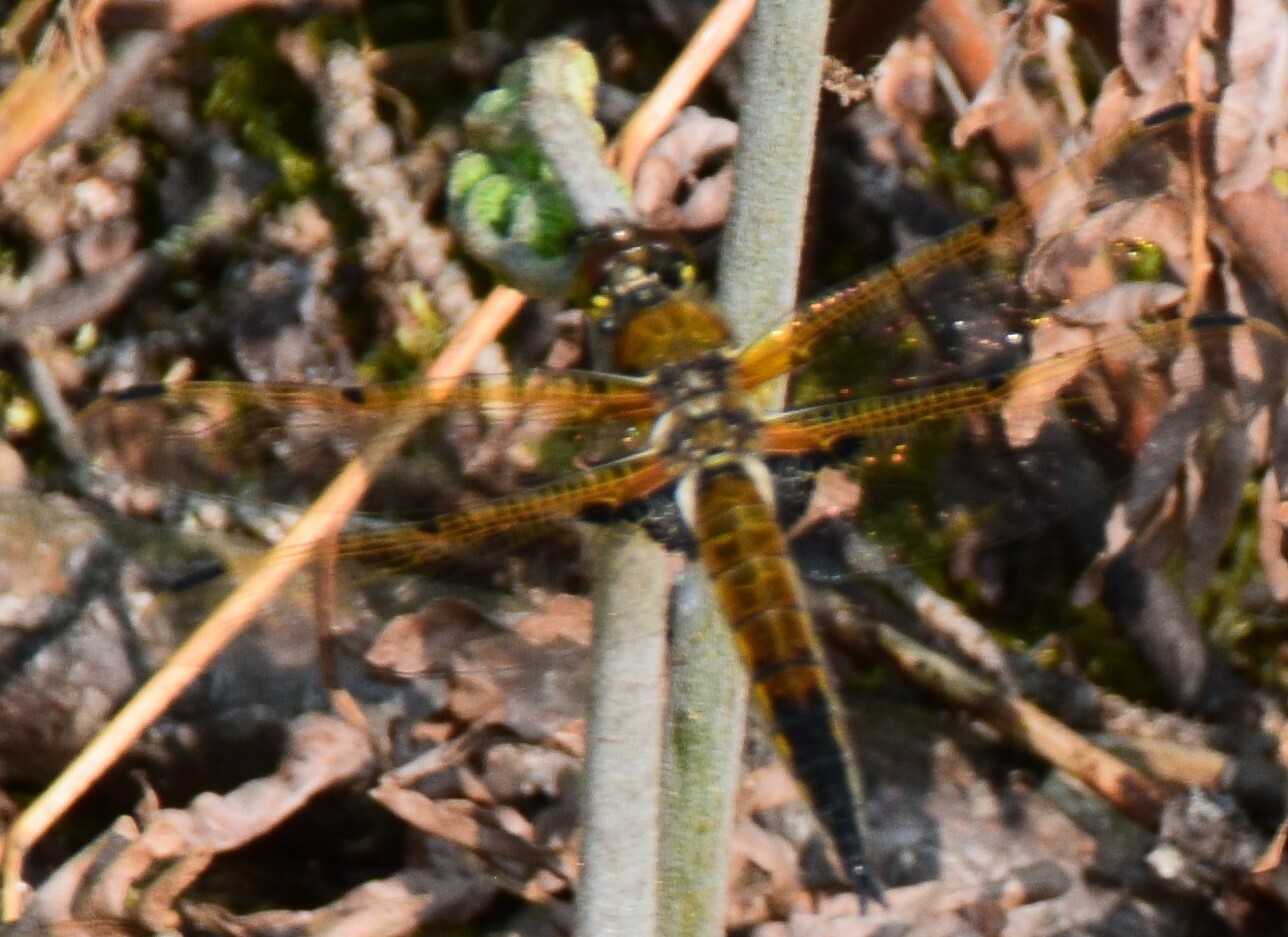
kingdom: Animalia
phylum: Arthropoda
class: Insecta
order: Odonata
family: Libellulidae
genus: Libellula
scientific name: Libellula quadrimaculata
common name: Four-spotted chaser
